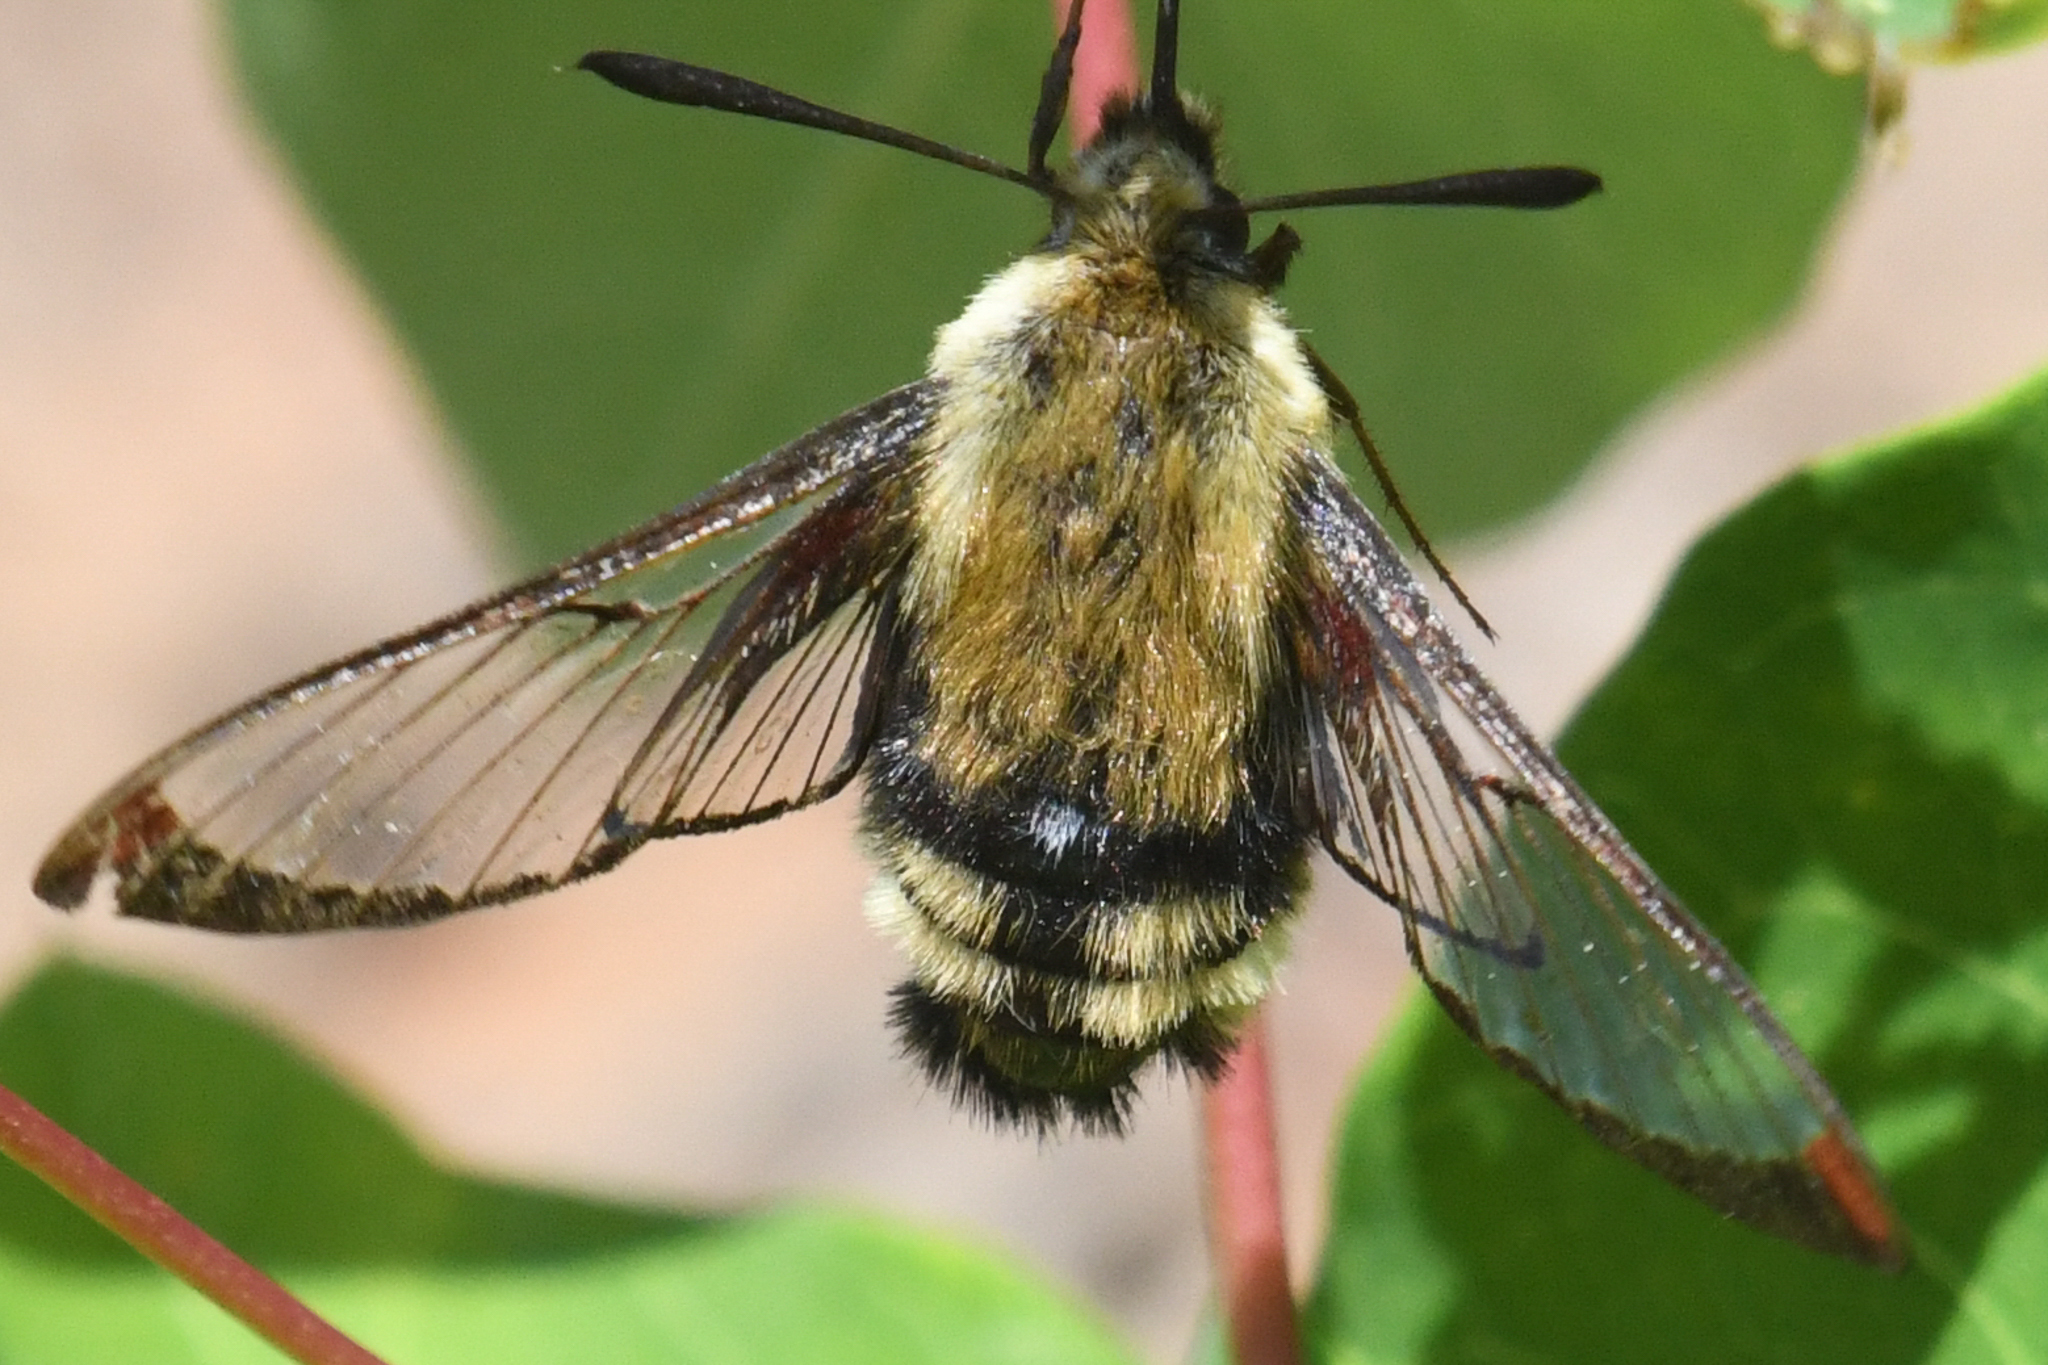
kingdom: Animalia
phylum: Arthropoda
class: Insecta
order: Lepidoptera
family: Sphingidae
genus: Hemaris
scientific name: Hemaris thetis
